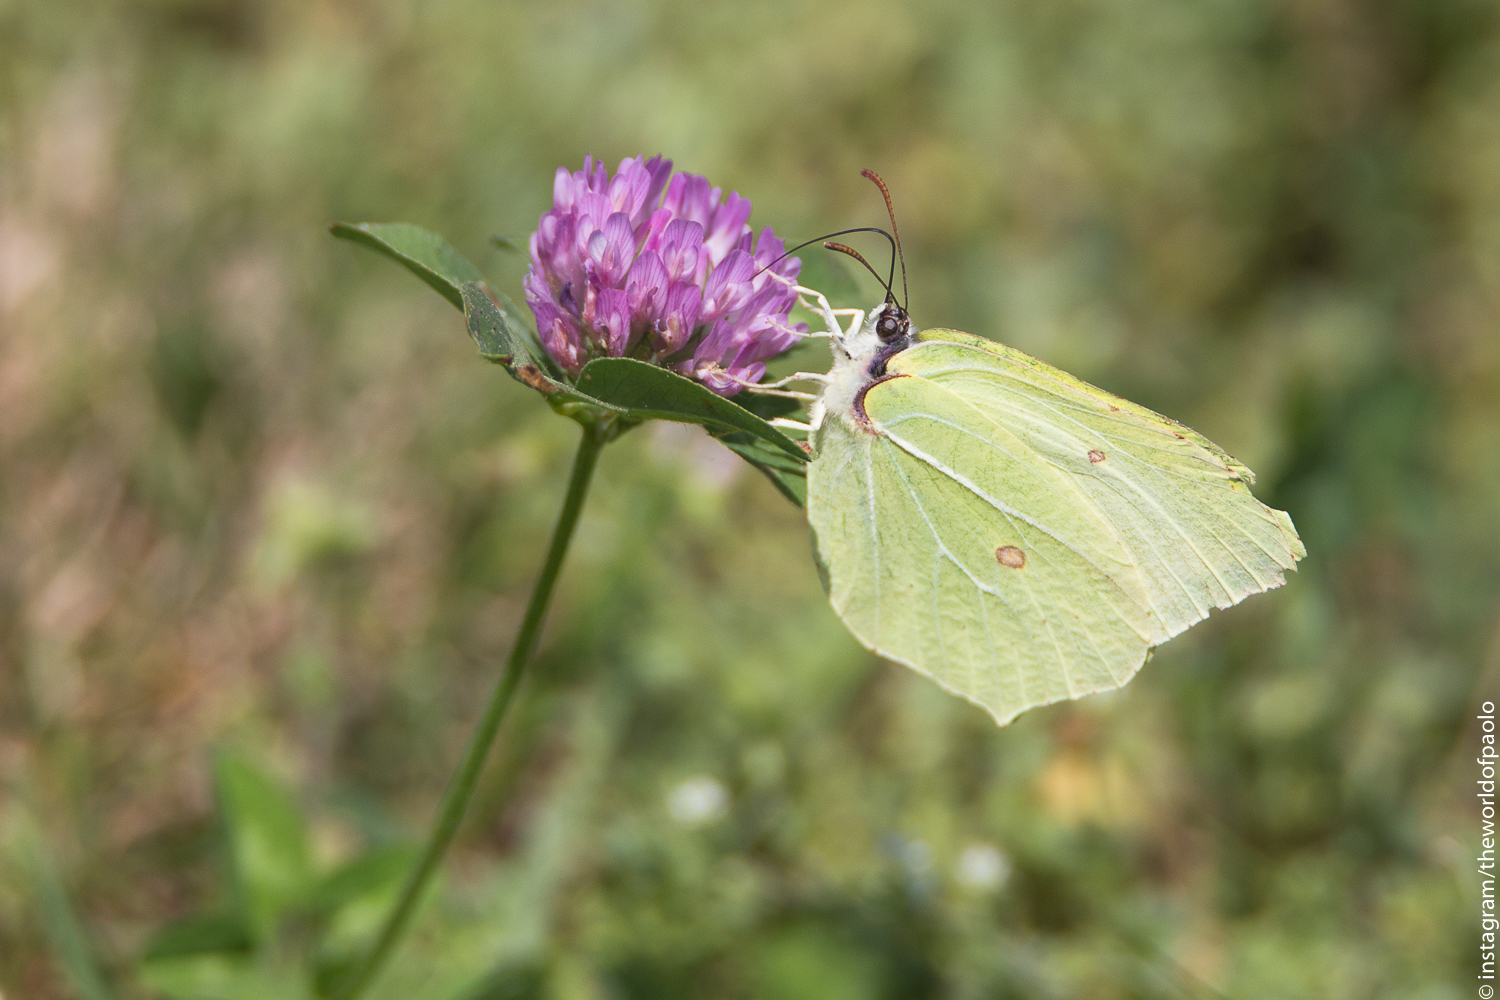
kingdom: Animalia
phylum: Arthropoda
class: Insecta
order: Lepidoptera
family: Pieridae
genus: Gonepteryx
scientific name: Gonepteryx rhamni
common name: Brimstone
